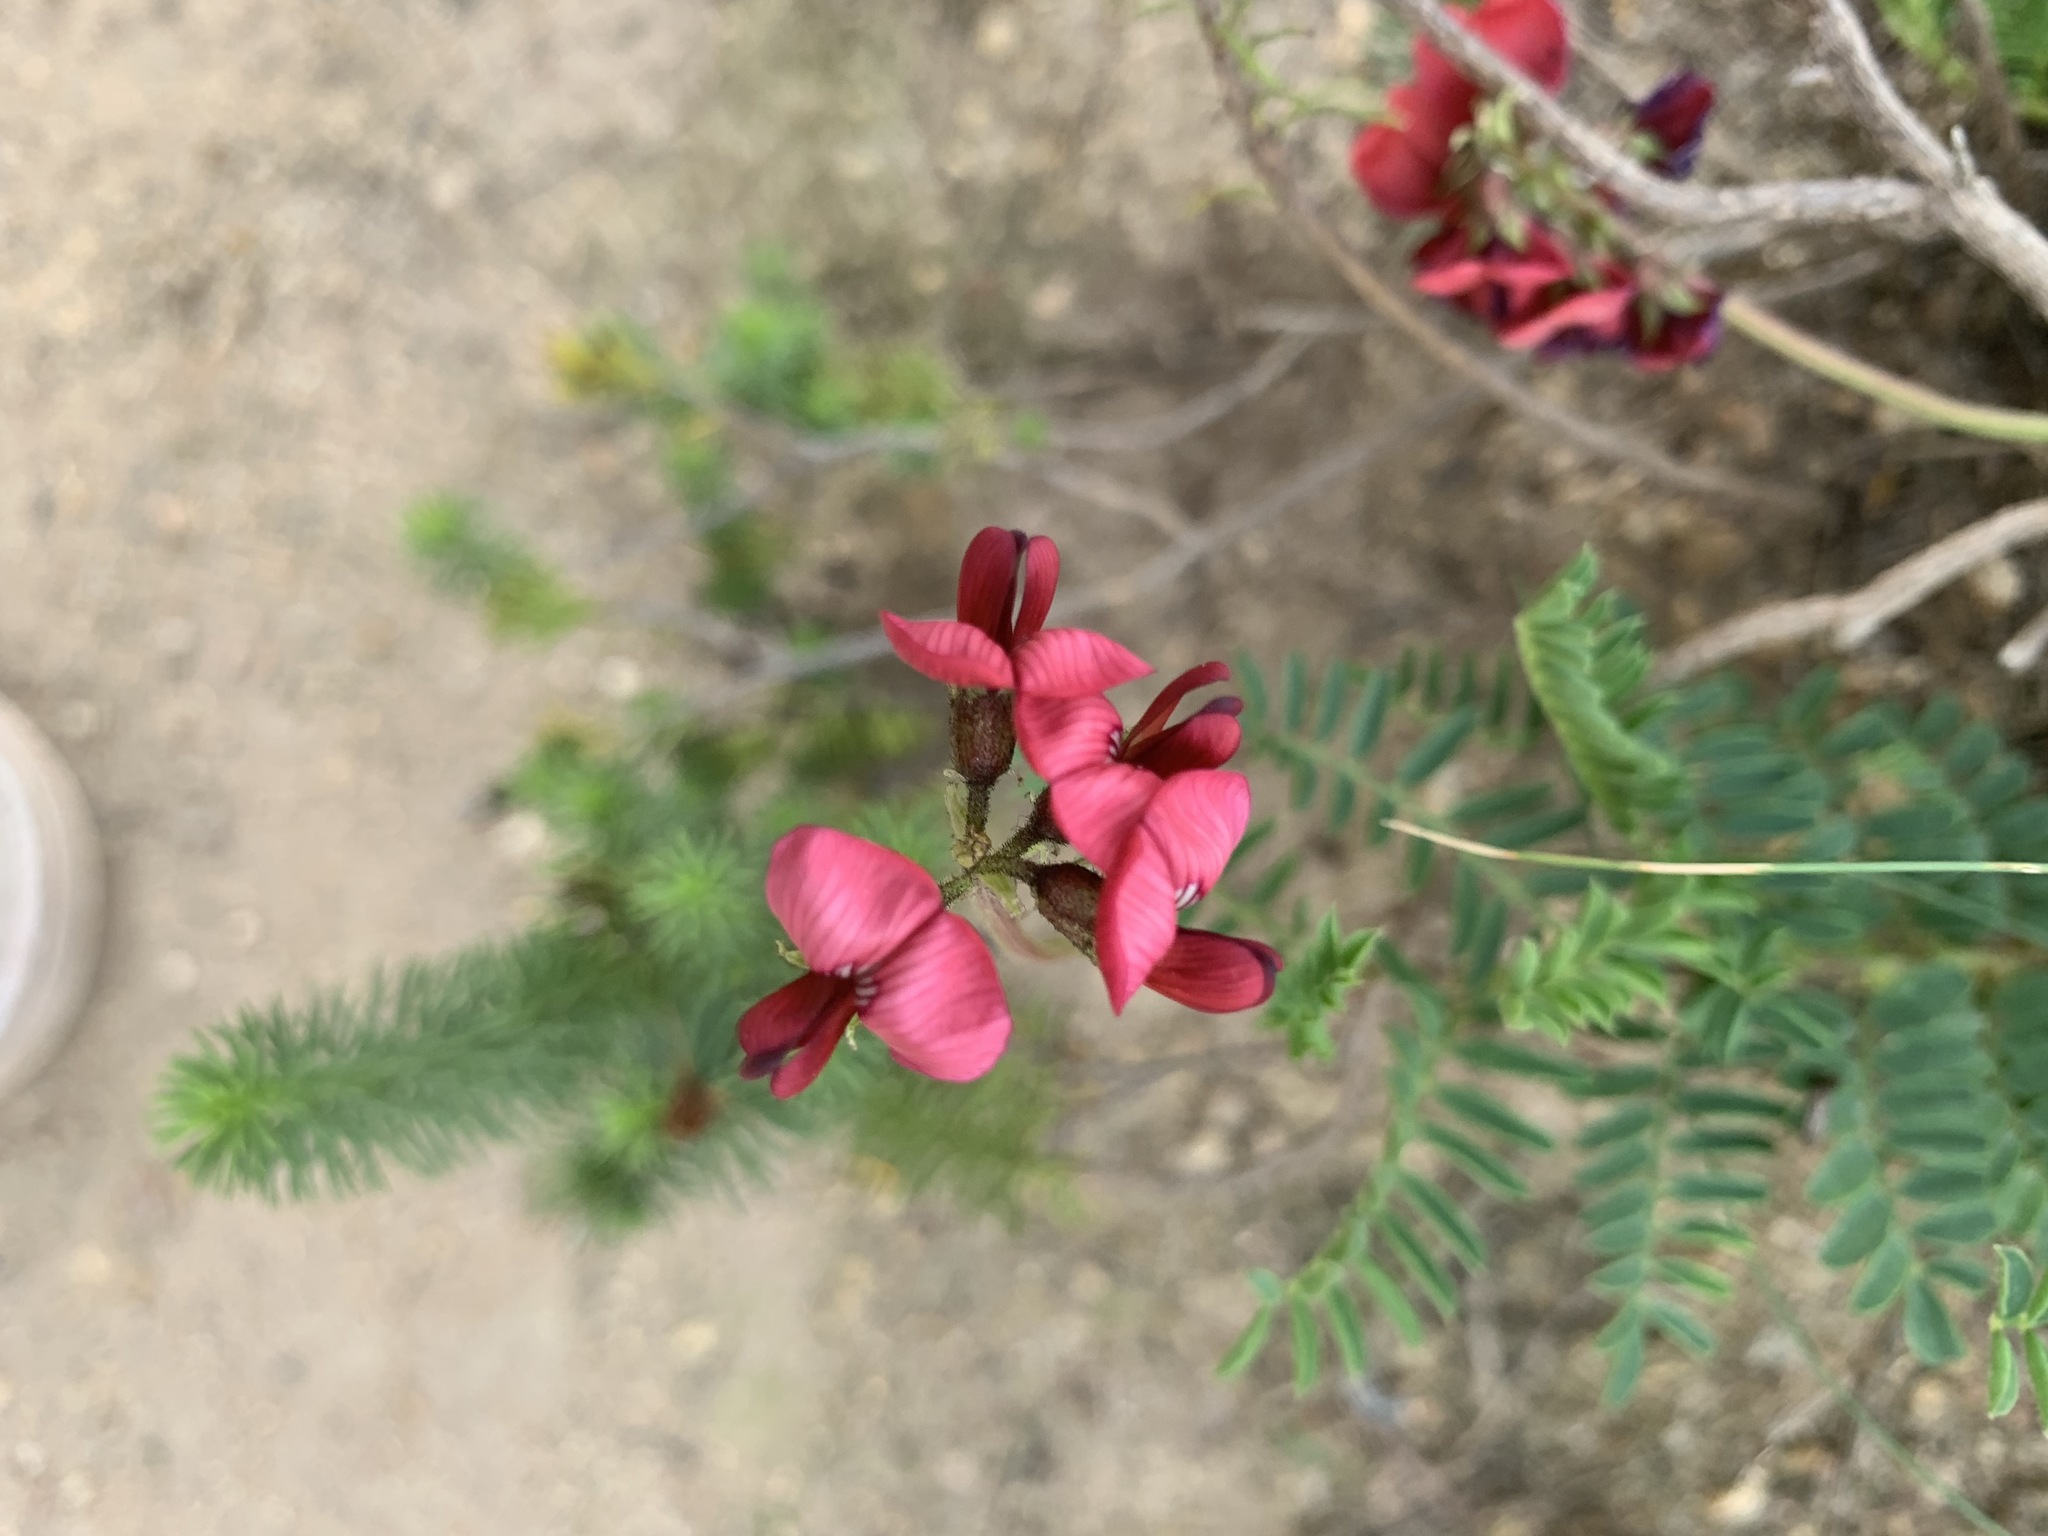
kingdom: Plantae
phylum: Tracheophyta
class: Magnoliopsida
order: Fabales
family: Fabaceae
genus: Lessertia
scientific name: Lessertia capensis
